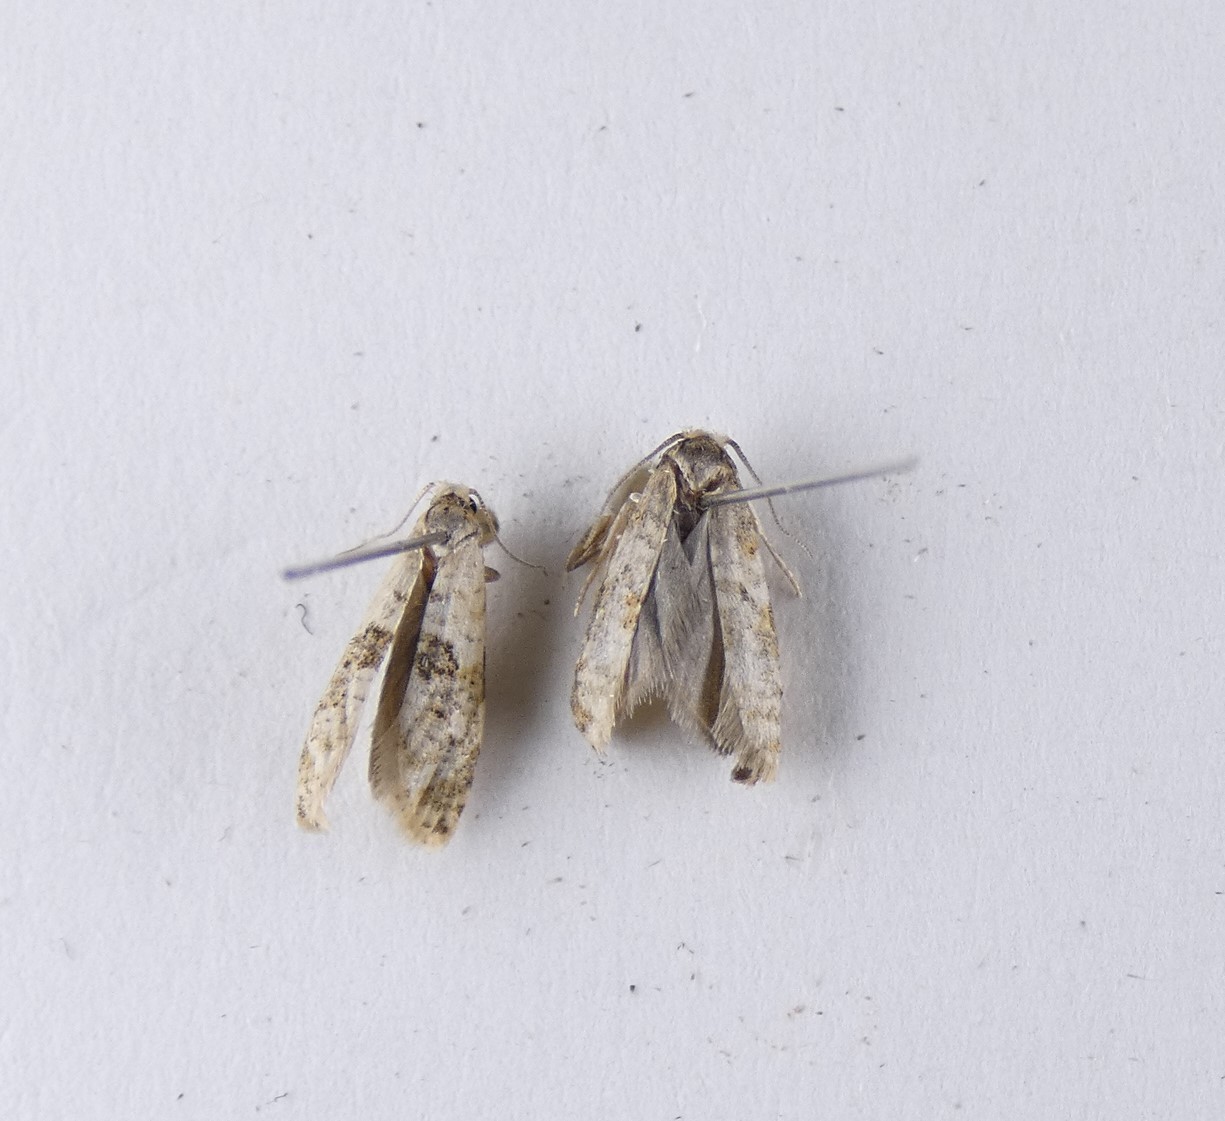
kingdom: Animalia
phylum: Arthropoda
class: Insecta
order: Lepidoptera
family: Tortricidae
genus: Dipterina
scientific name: Dipterina imbriferana
